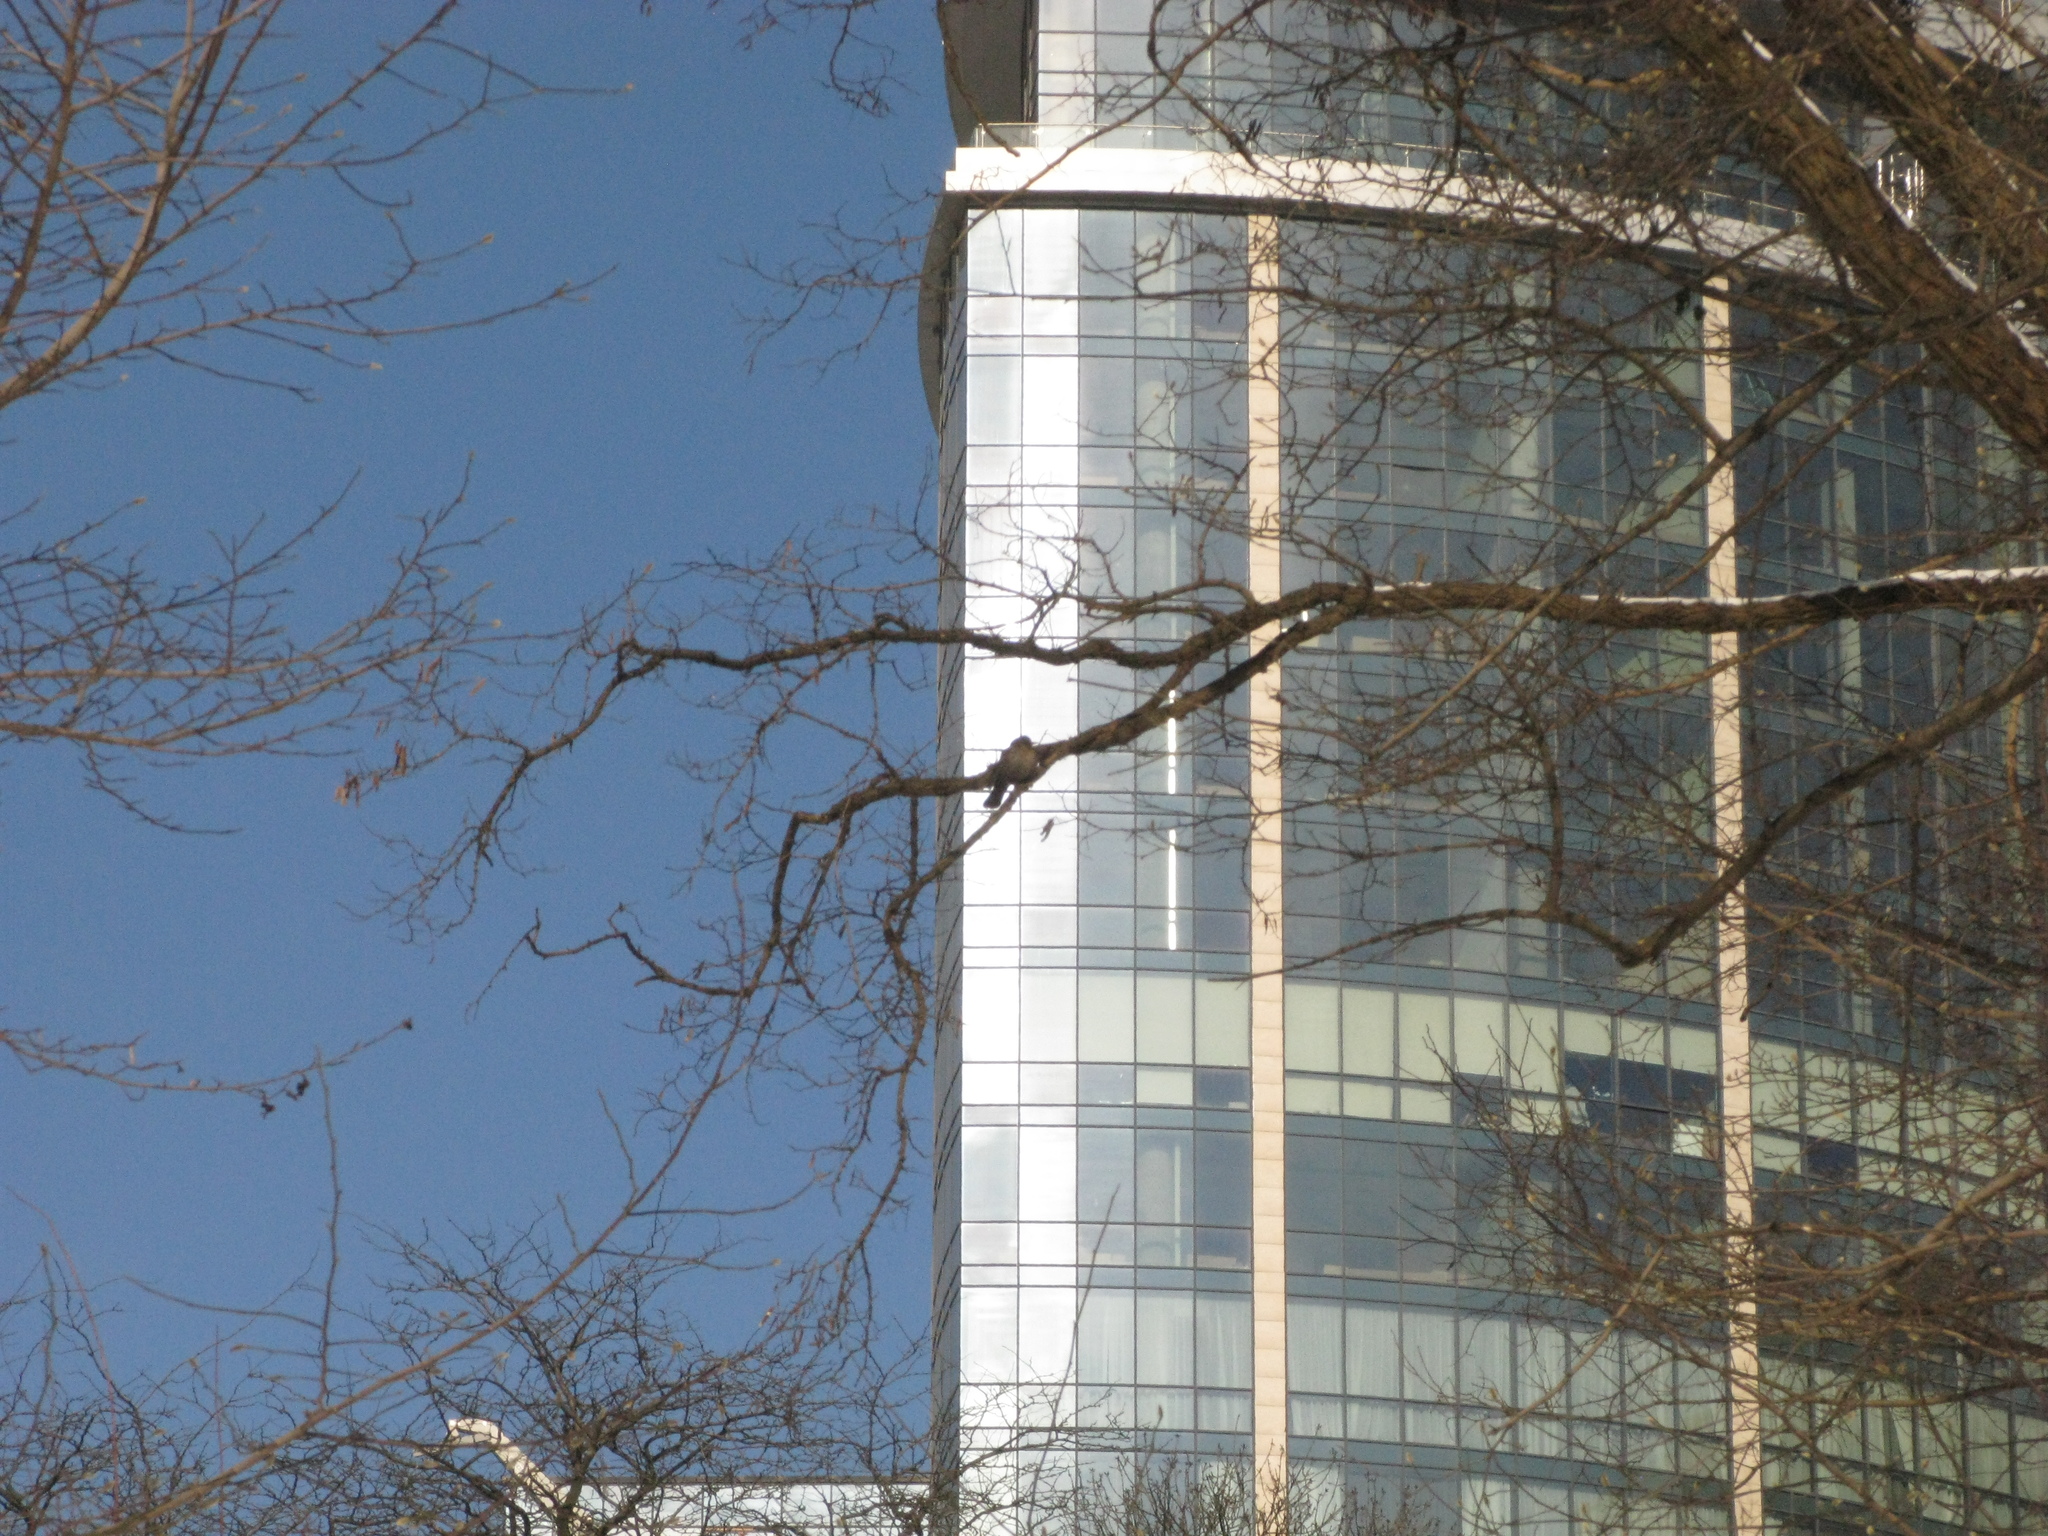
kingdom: Animalia
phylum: Chordata
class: Aves
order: Passeriformes
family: Turdidae
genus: Turdus
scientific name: Turdus merula
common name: Common blackbird
